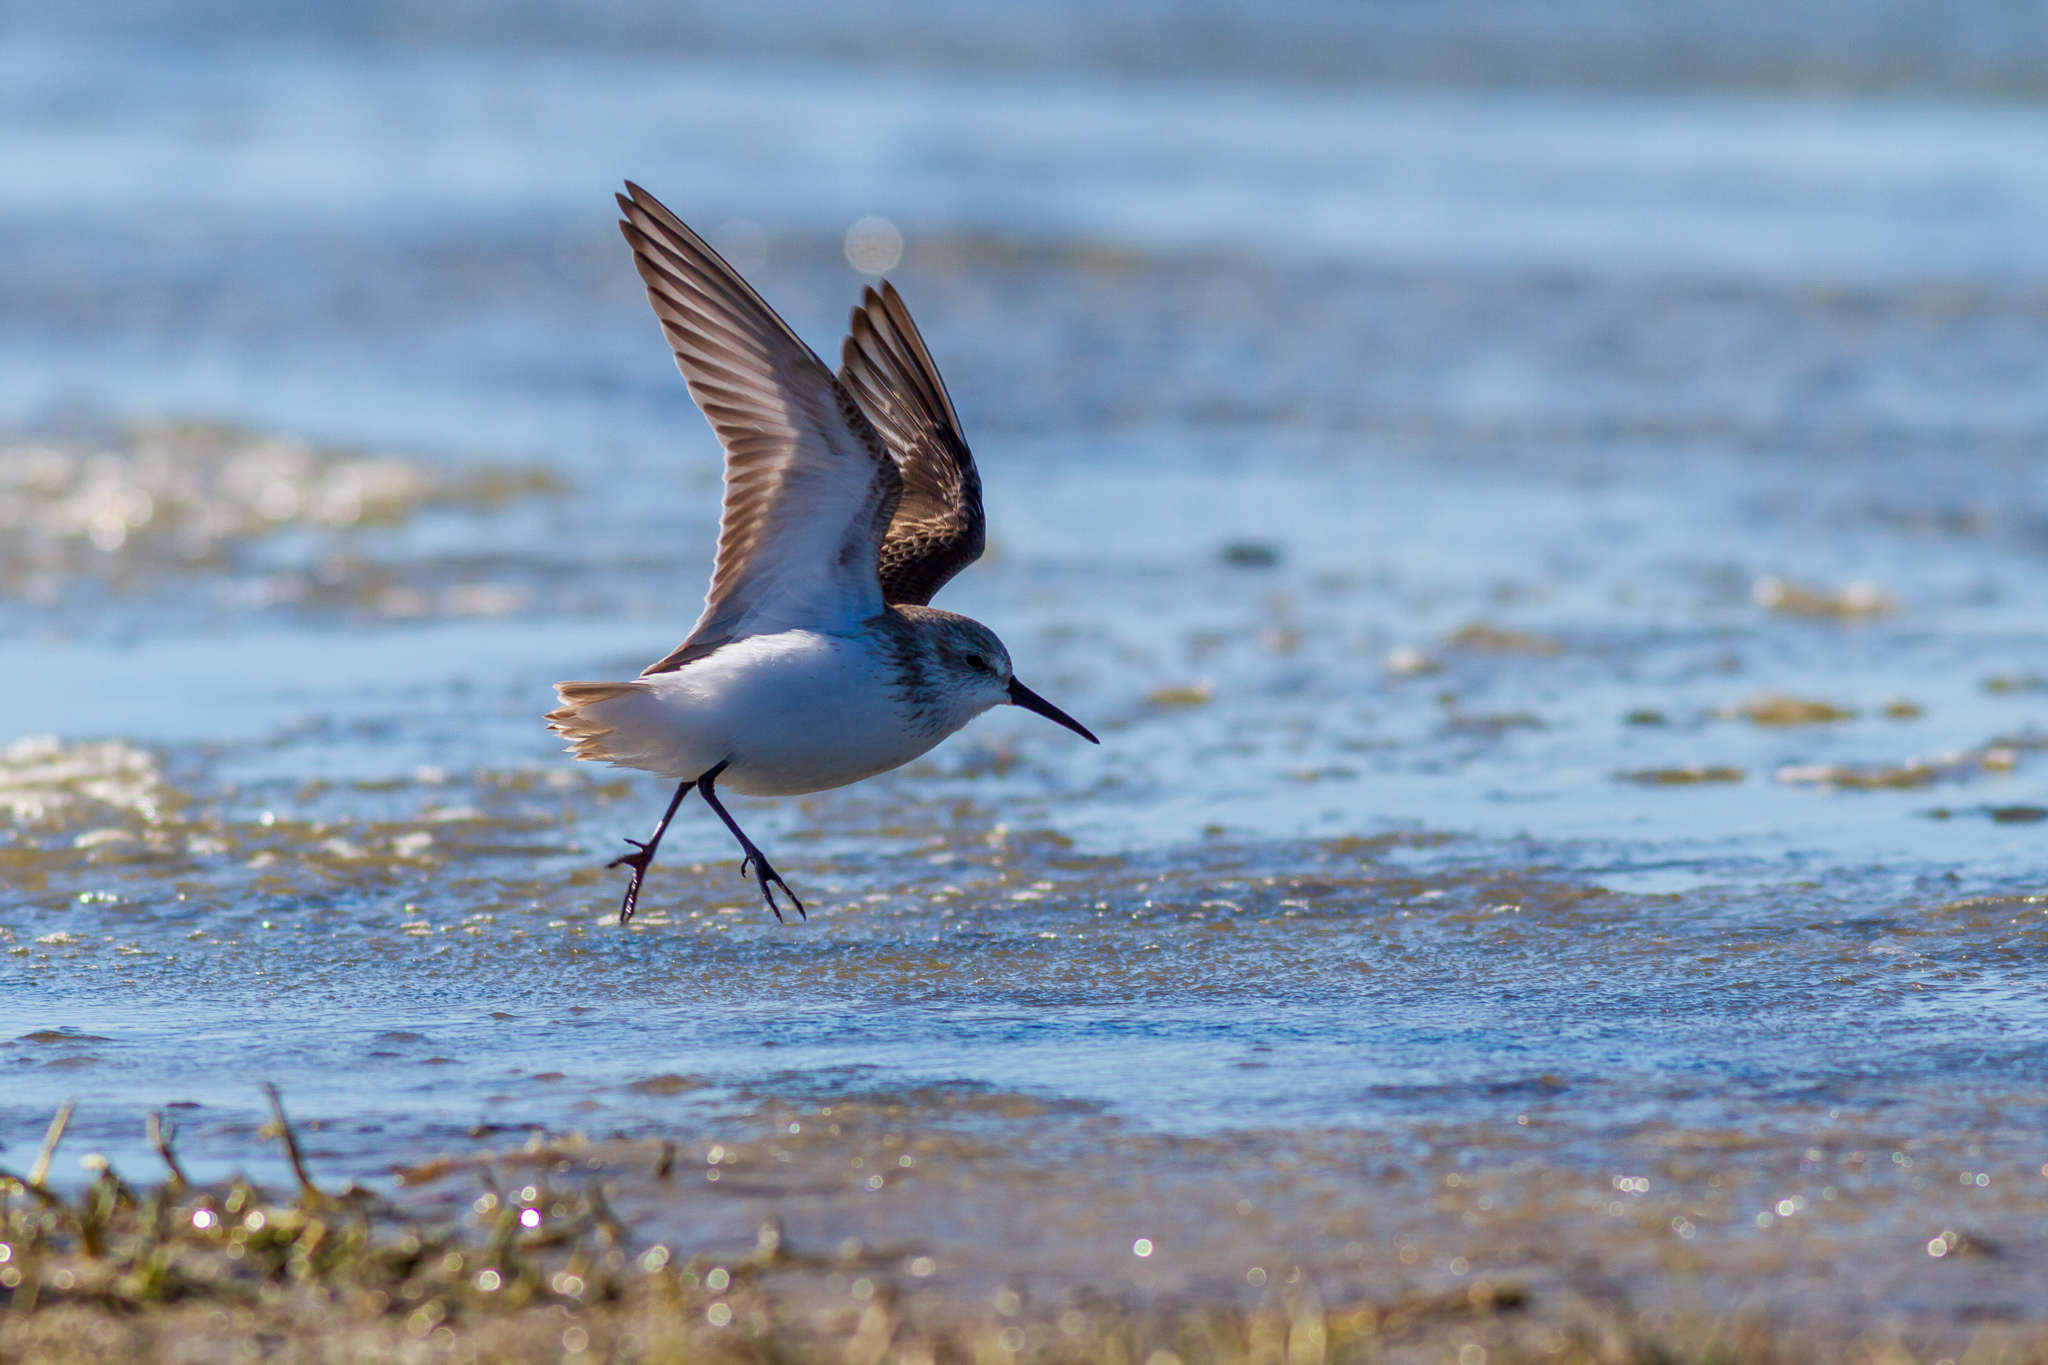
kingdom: Animalia
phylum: Chordata
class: Aves
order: Charadriiformes
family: Scolopacidae
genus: Calidris
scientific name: Calidris alpina
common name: Dunlin
